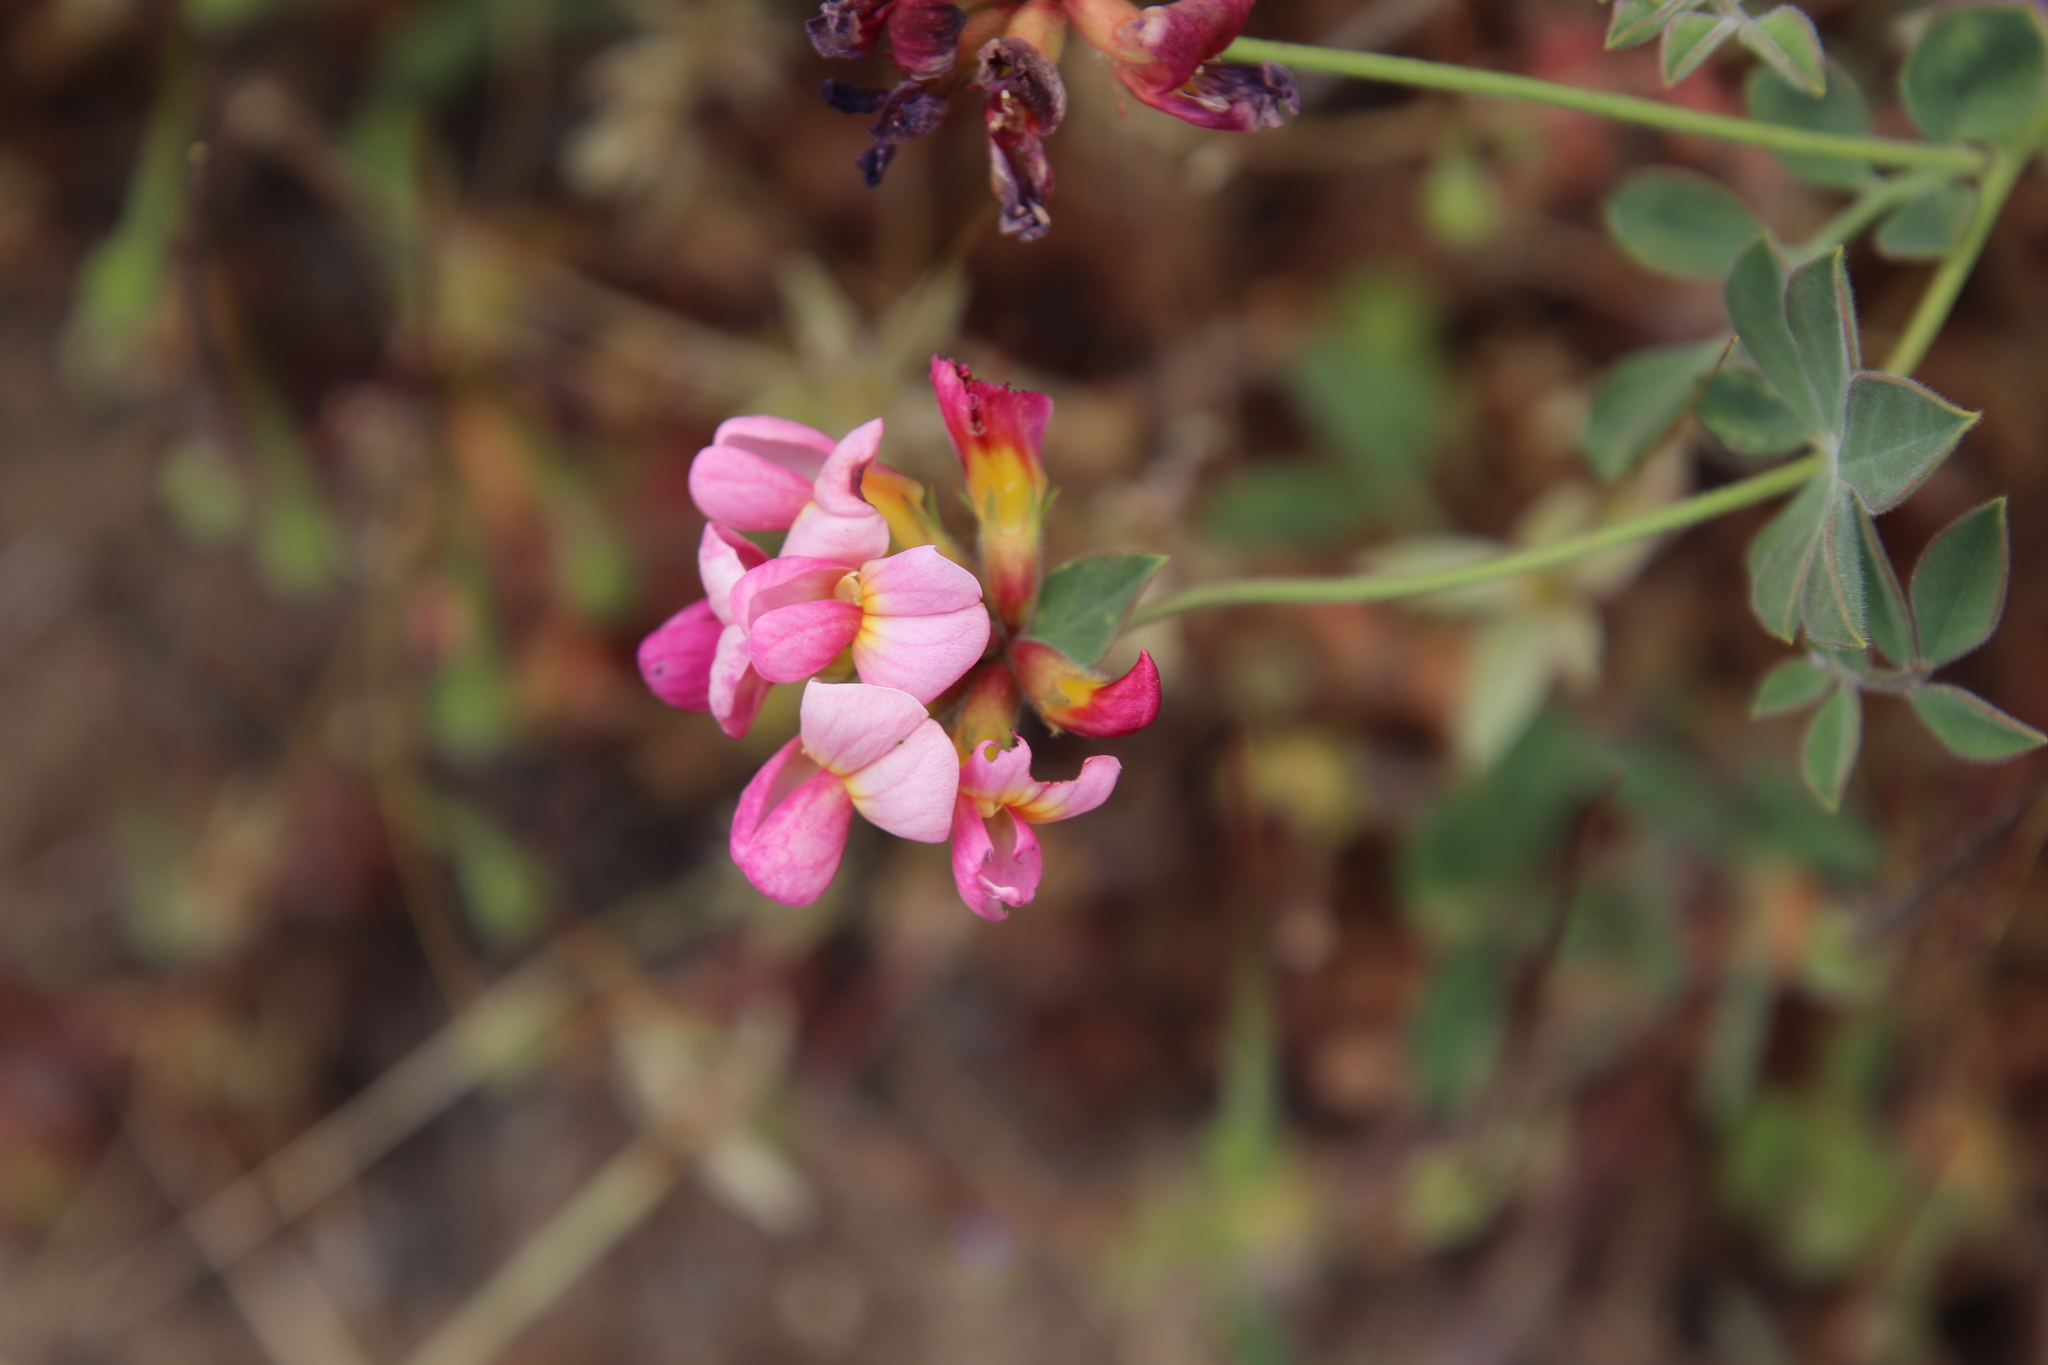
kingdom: Plantae
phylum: Tracheophyta
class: Magnoliopsida
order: Fabales
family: Fabaceae
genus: Acmispon
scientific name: Acmispon grandiflorus
